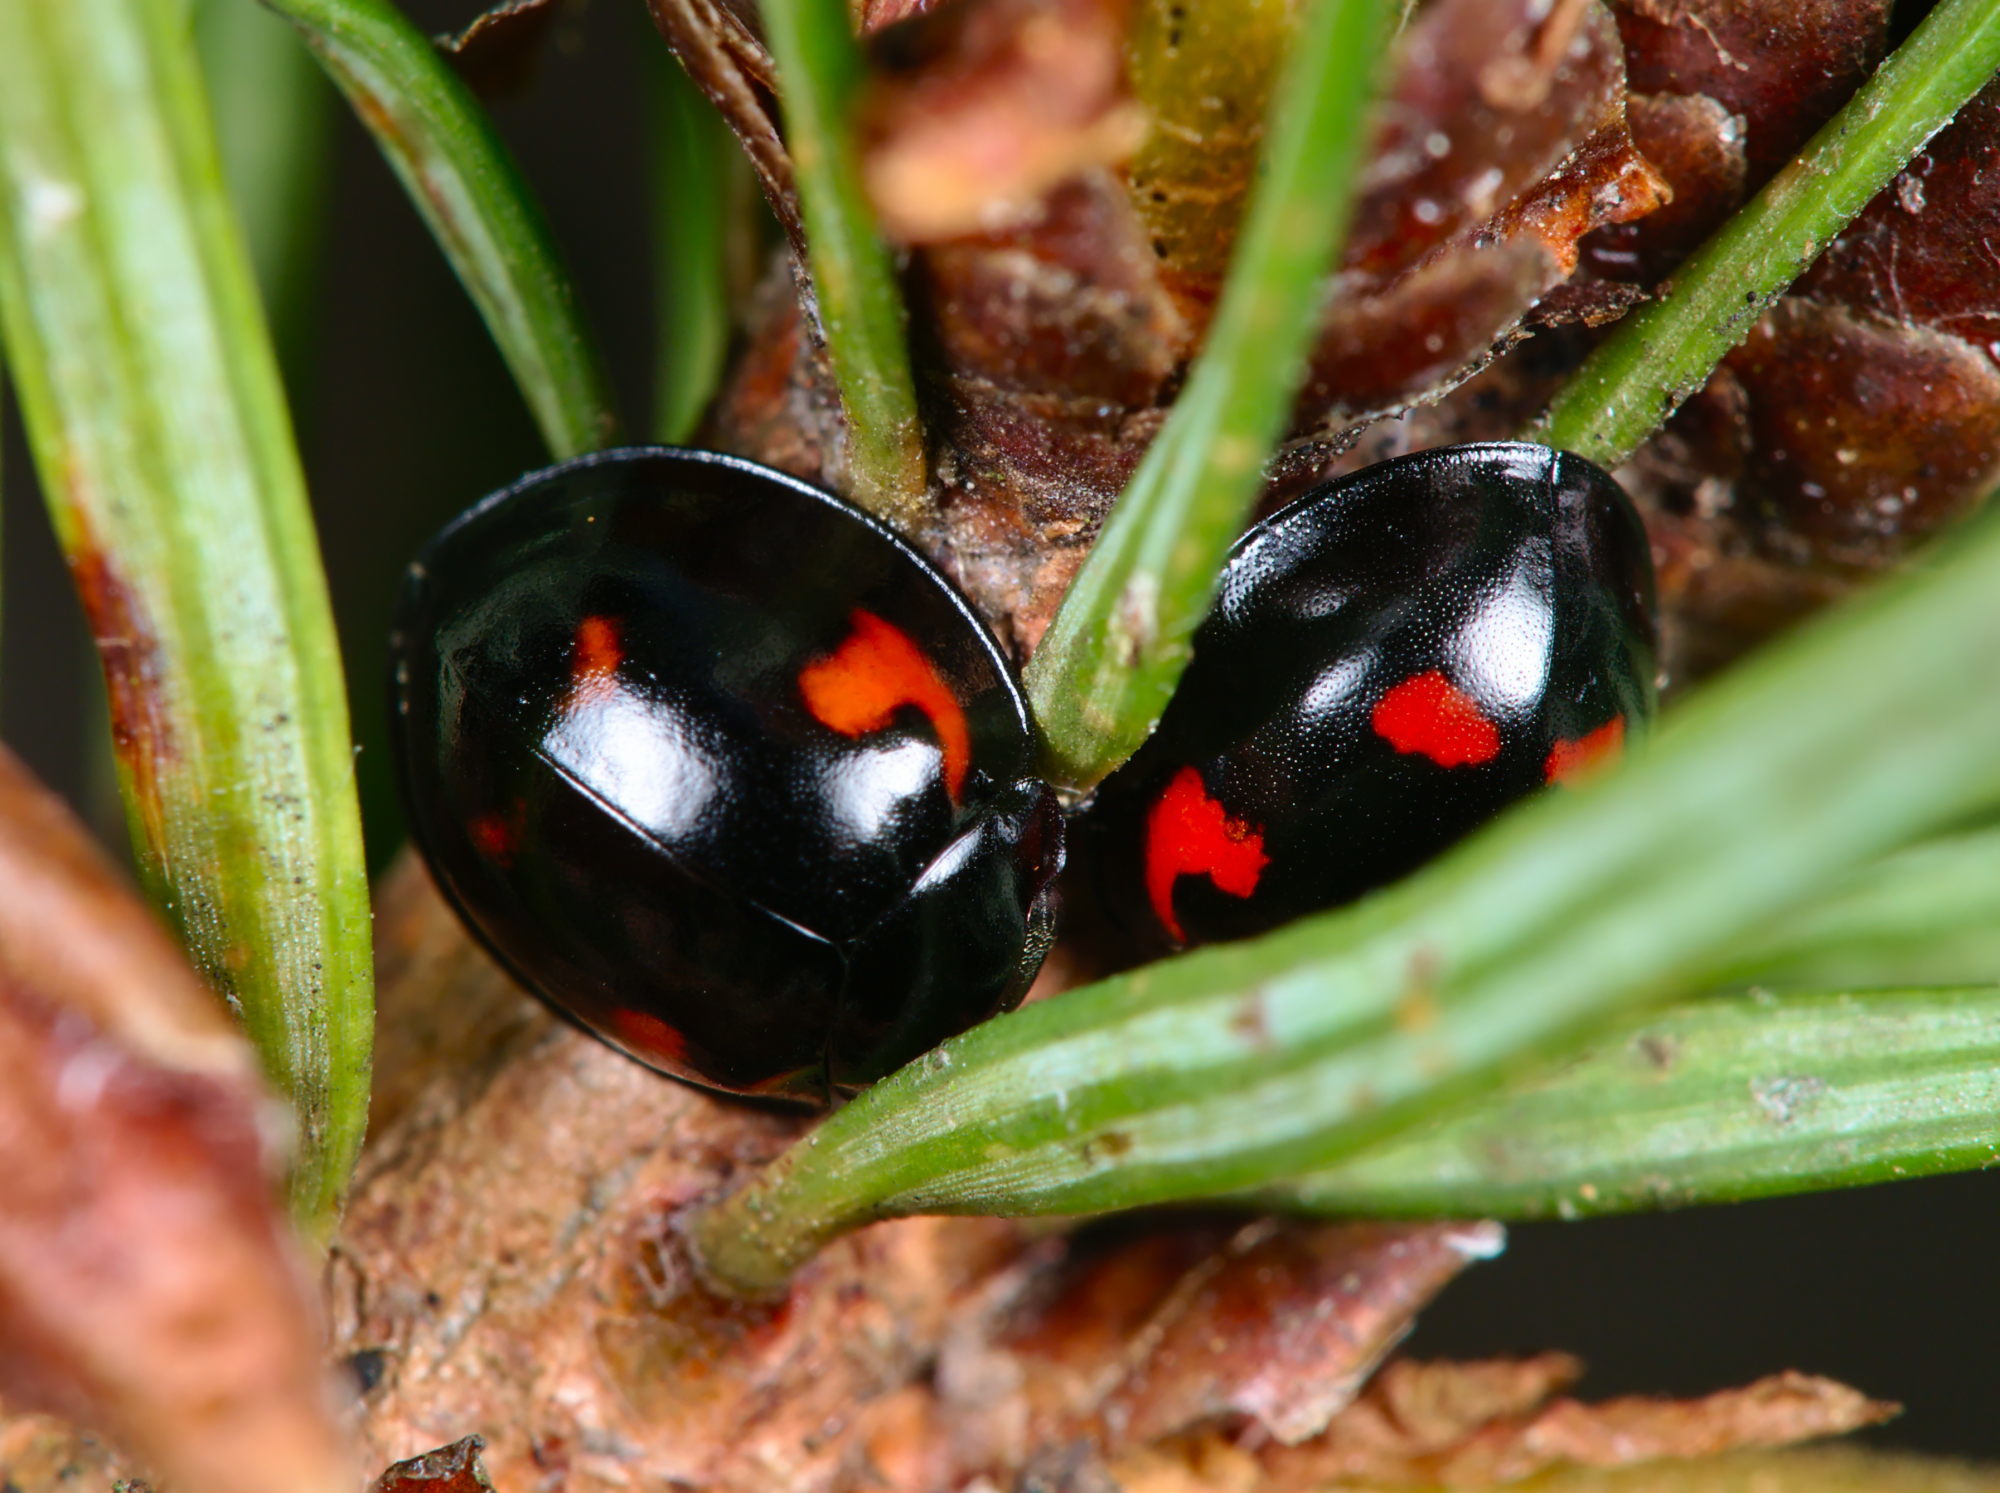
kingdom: Animalia
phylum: Arthropoda
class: Insecta
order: Coleoptera
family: Coccinellidae
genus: Brumus
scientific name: Brumus quadripustulatus
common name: Ladybird beetle
